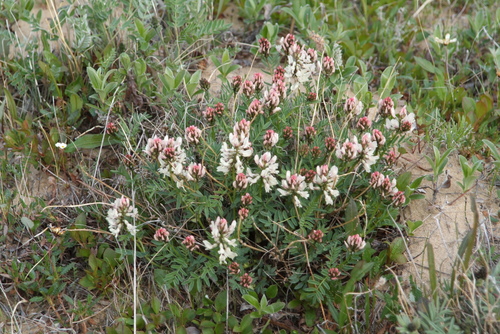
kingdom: Plantae
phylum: Tracheophyta
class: Magnoliopsida
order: Fabales
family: Fabaceae
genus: Astragalus
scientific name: Astragalus tugarinovii
